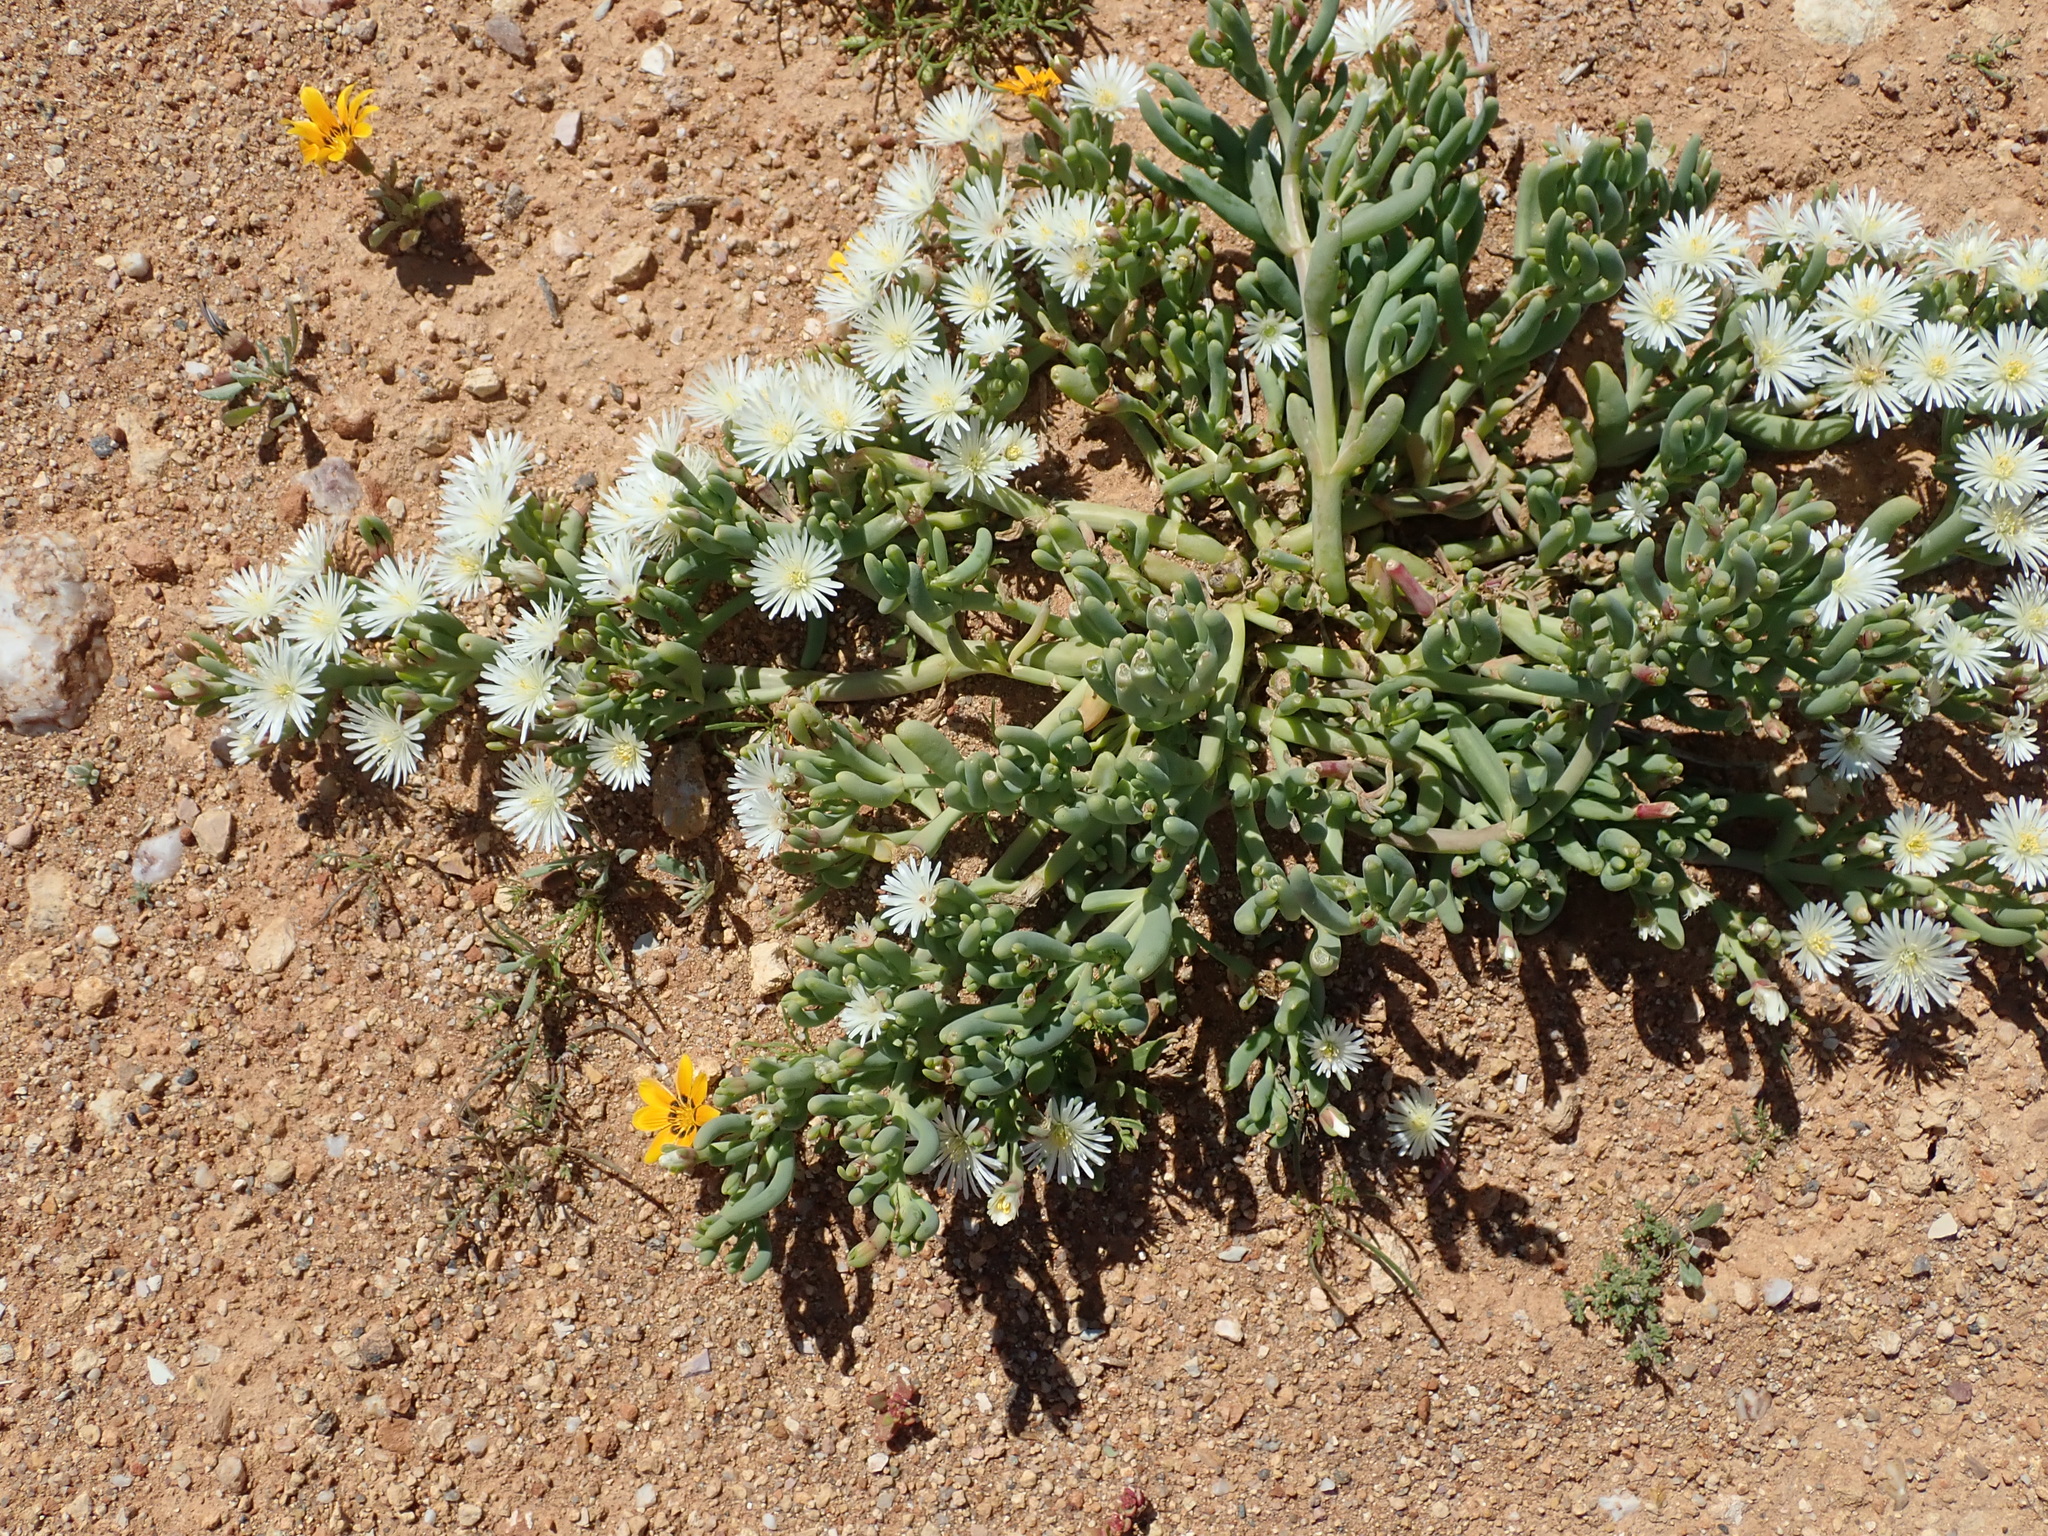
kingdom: Plantae
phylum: Tracheophyta
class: Magnoliopsida
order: Caryophyllales
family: Aizoaceae
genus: Mesembryanthemum
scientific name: Mesembryanthemum rapaceum
